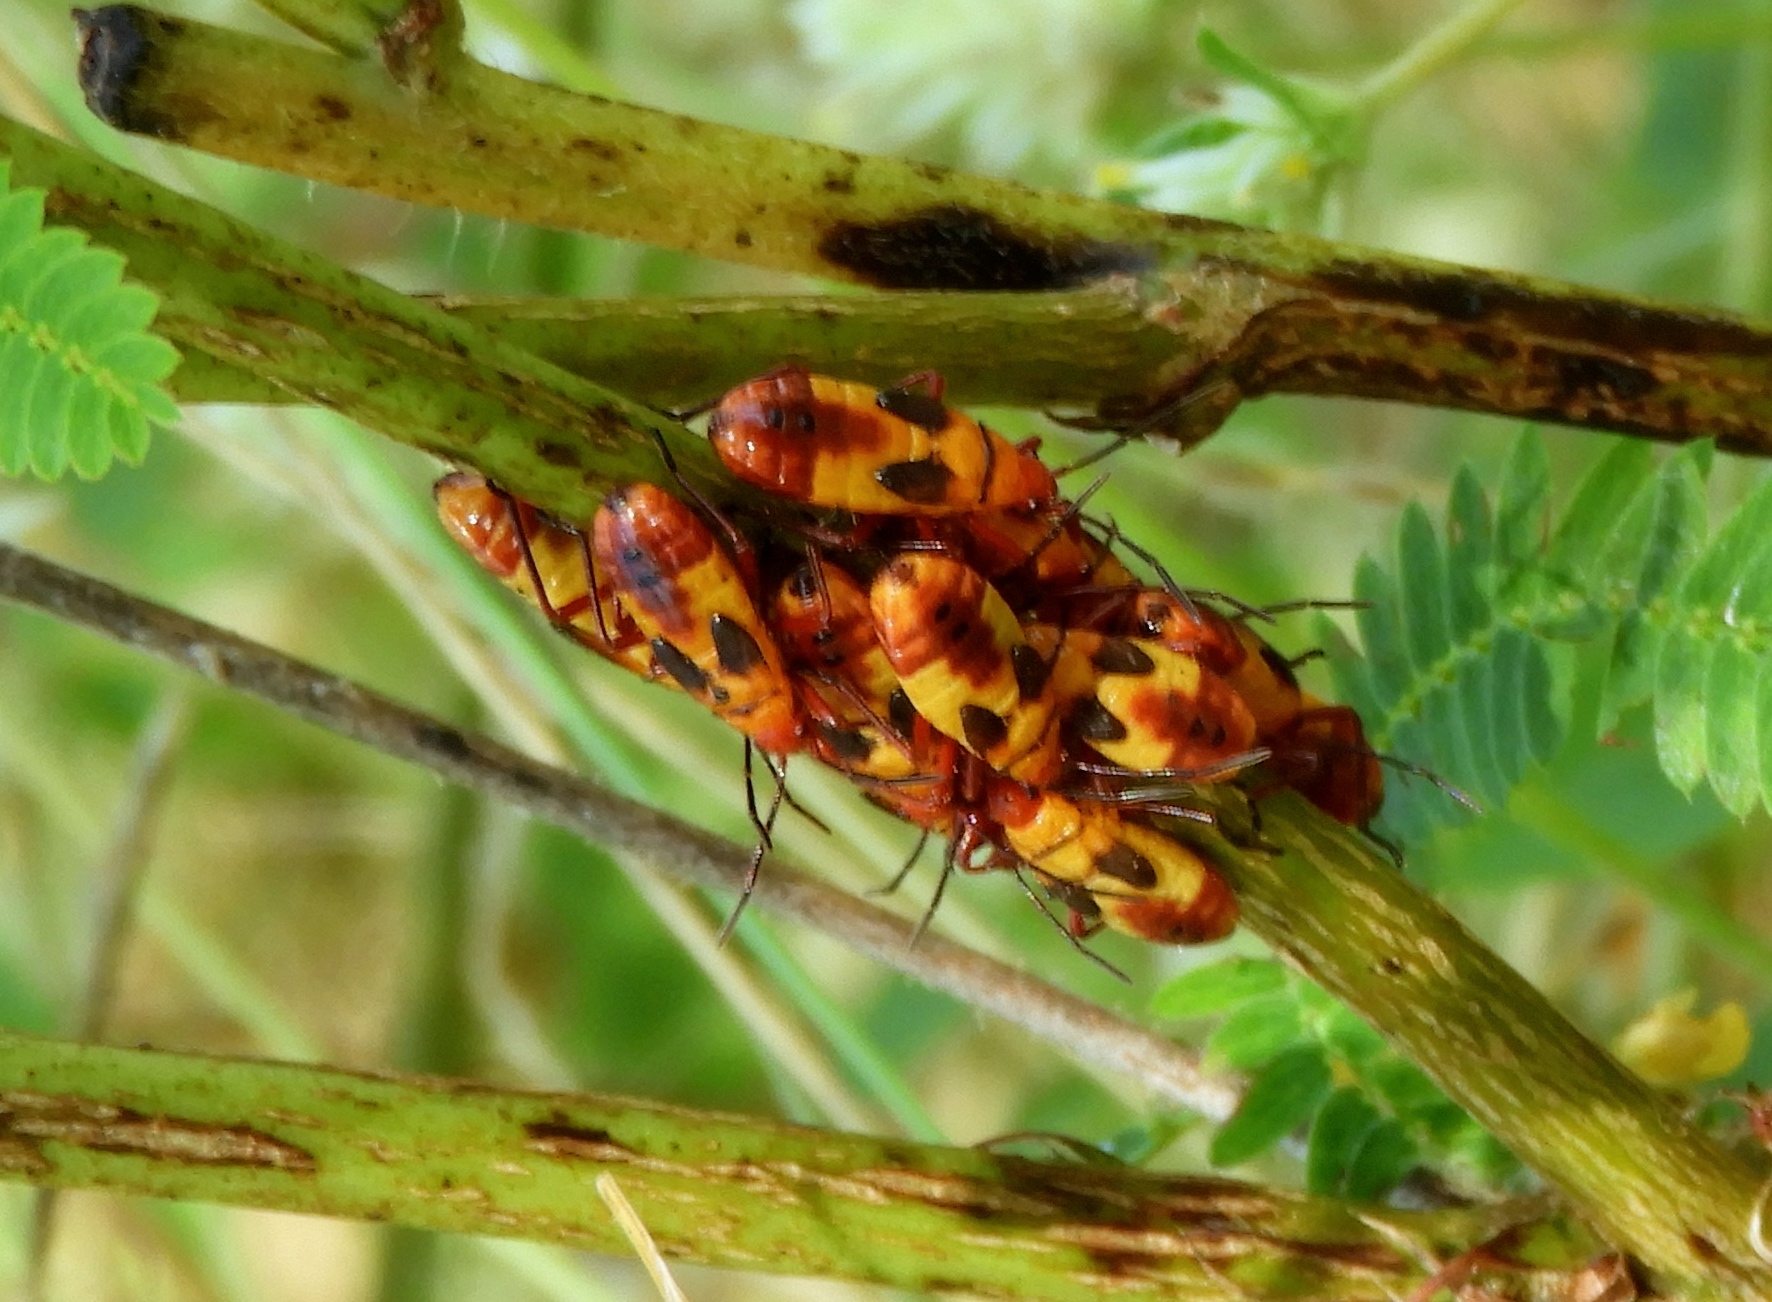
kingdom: Animalia
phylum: Arthropoda
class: Insecta
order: Hemiptera
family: Lygaeidae
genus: Oncopeltus
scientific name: Oncopeltus guttaloides
